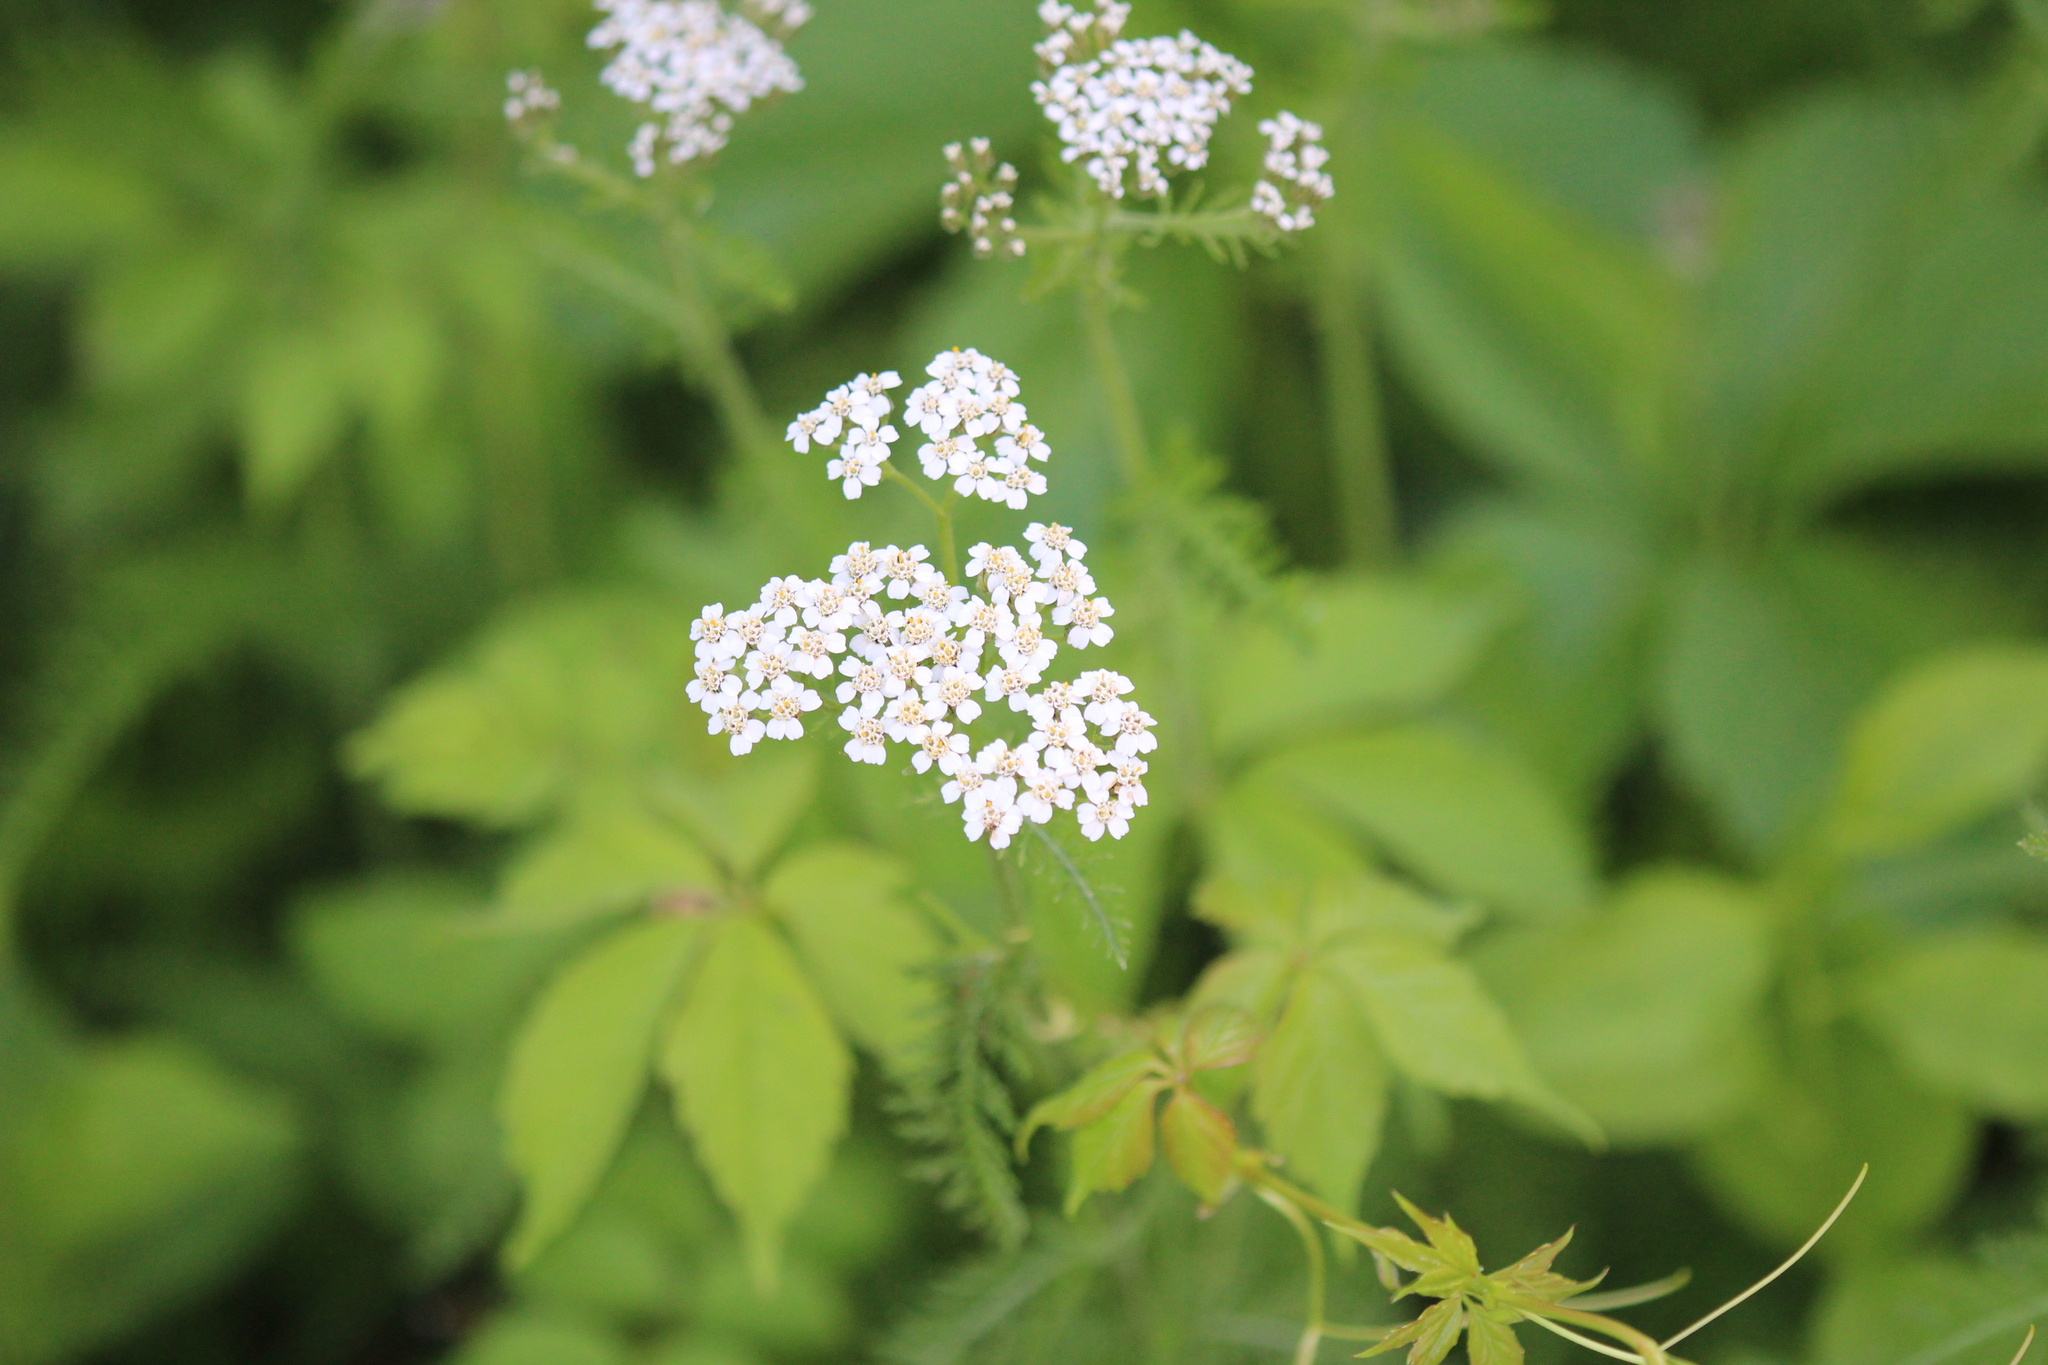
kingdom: Plantae
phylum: Tracheophyta
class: Magnoliopsida
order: Asterales
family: Asteraceae
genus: Achillea
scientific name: Achillea millefolium
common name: Yarrow
